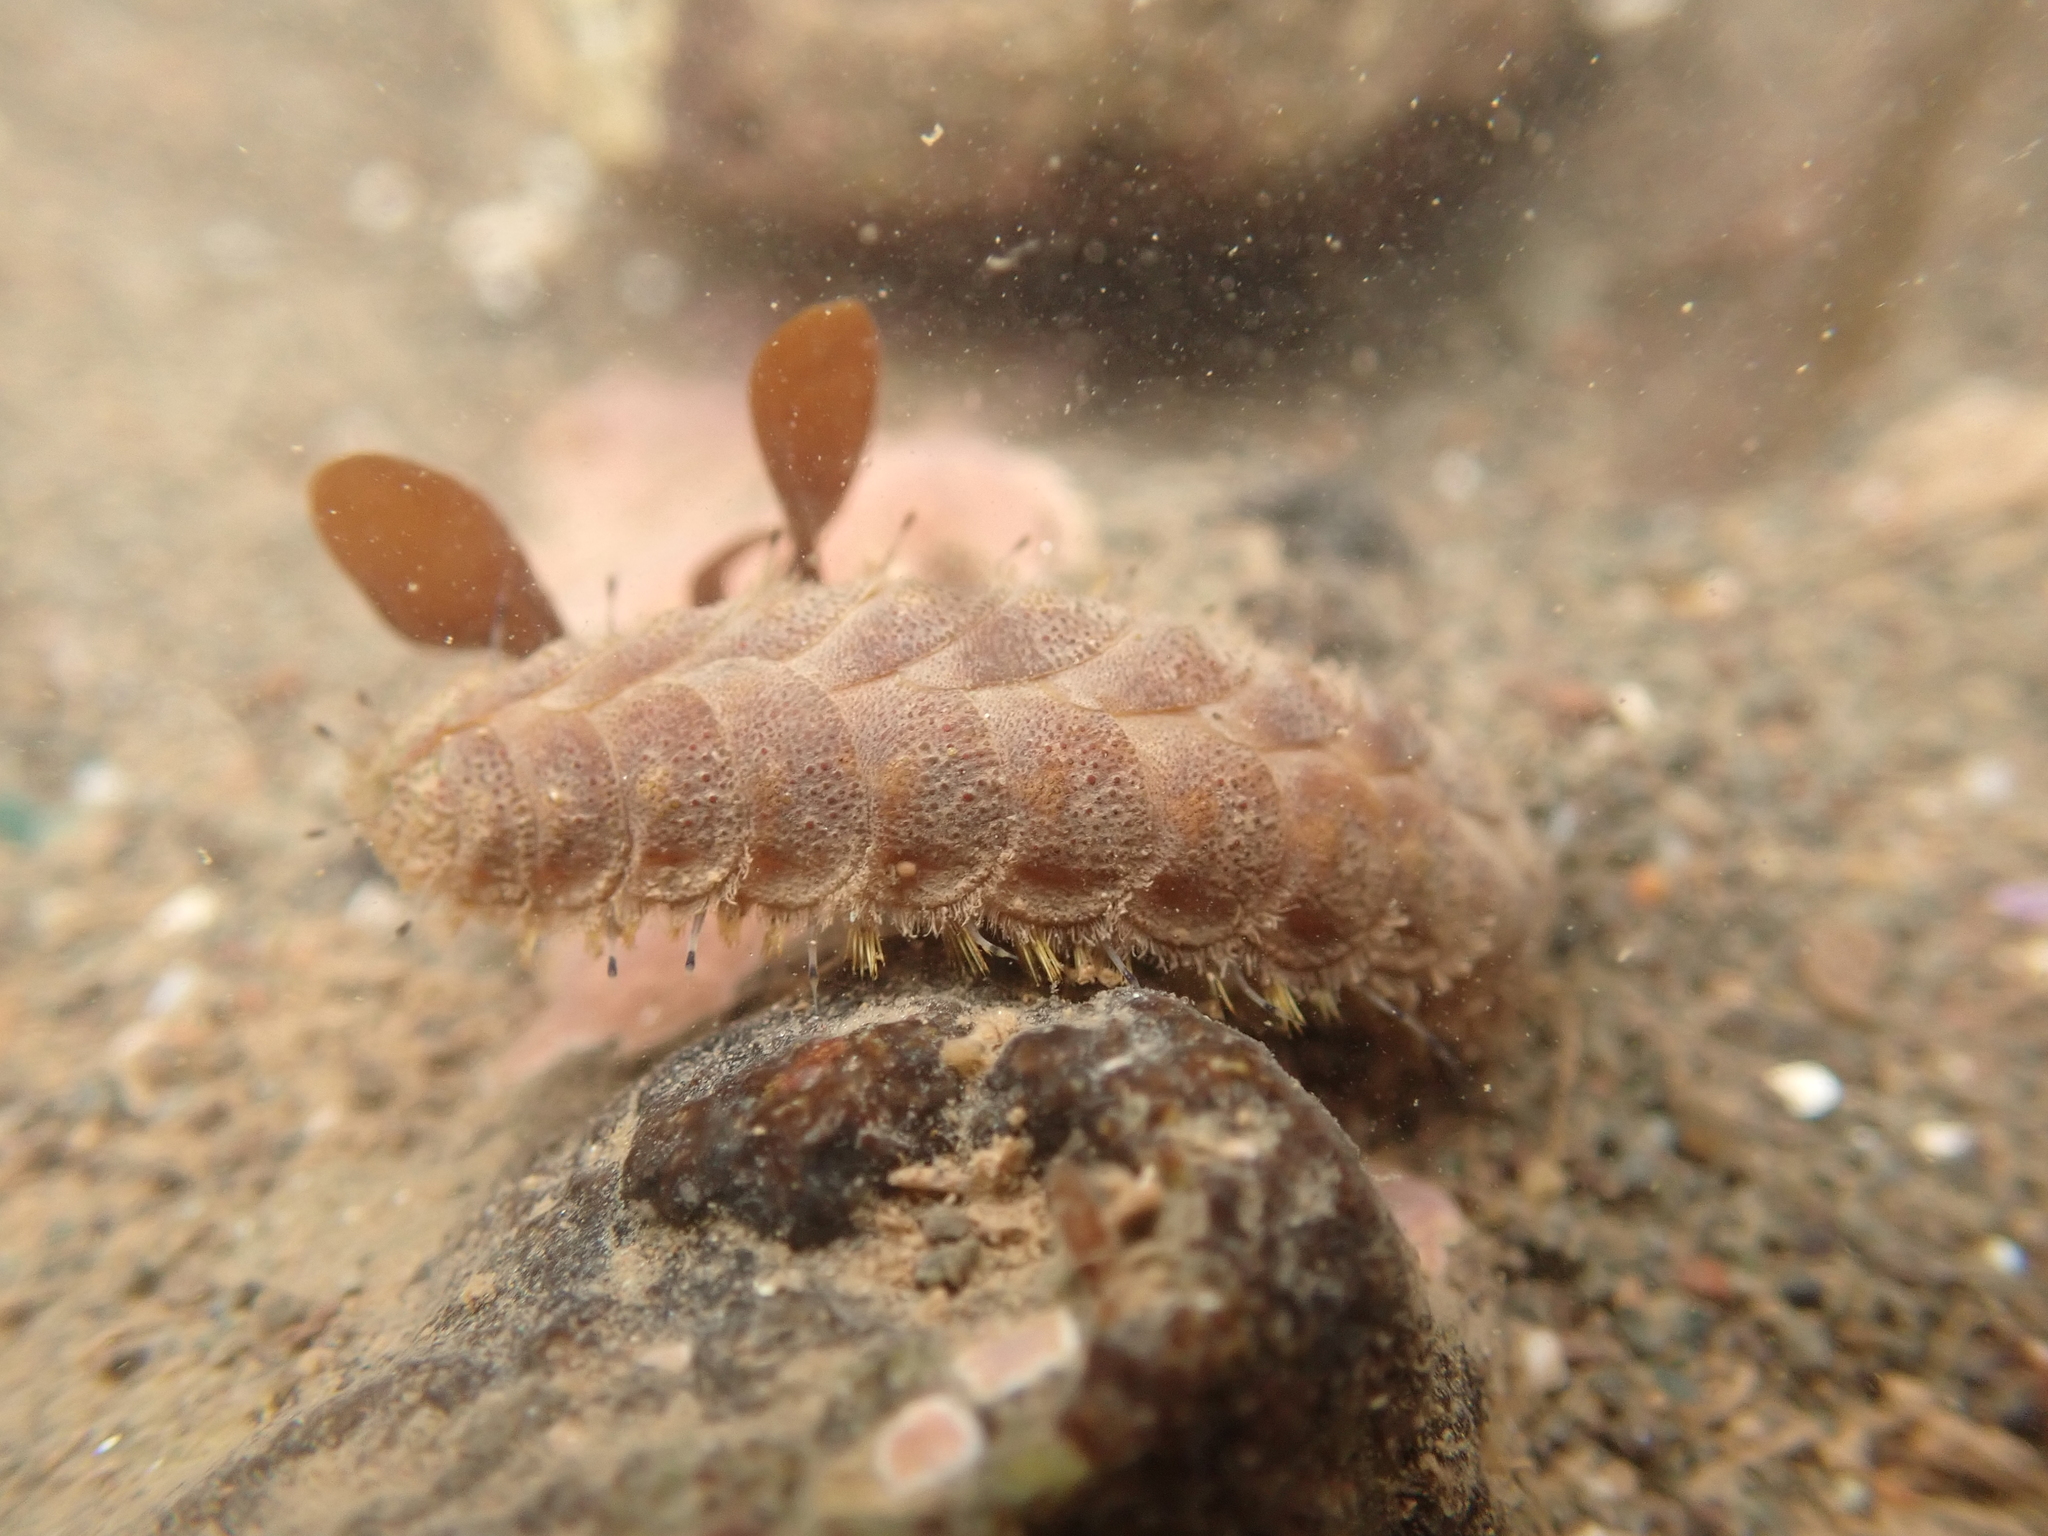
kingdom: Animalia
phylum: Annelida
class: Polychaeta
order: Phyllodocida
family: Polynoidae
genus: Lepidonotus
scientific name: Lepidonotus squamatus
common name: Twelve-scaled worm
